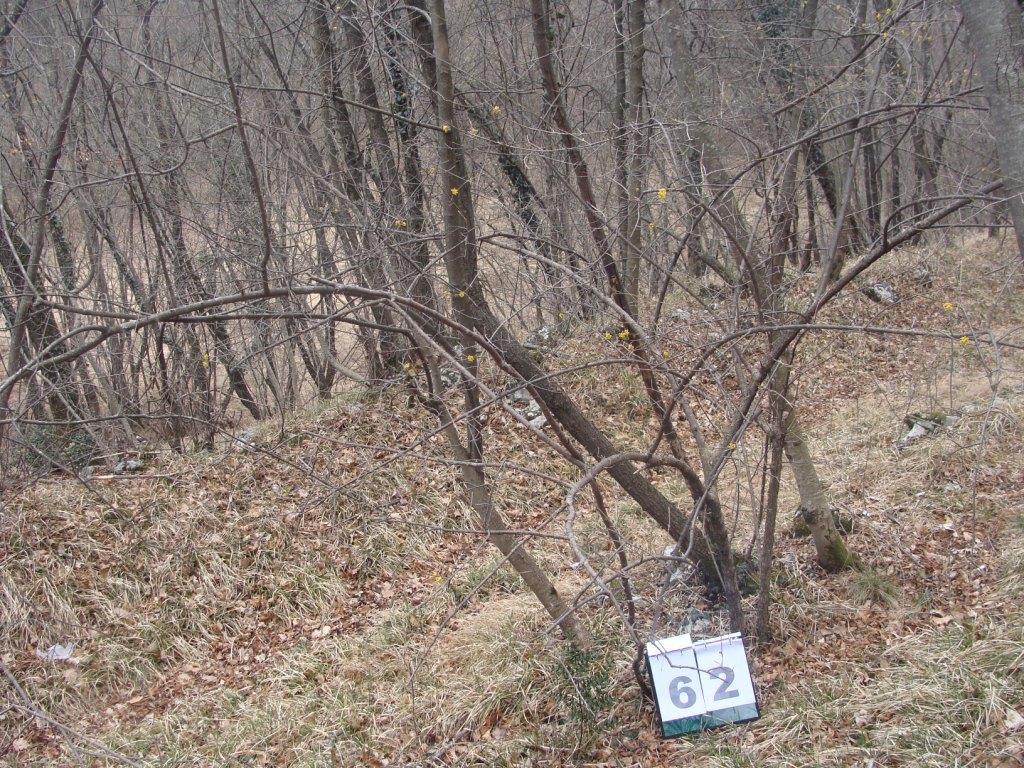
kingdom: Plantae
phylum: Tracheophyta
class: Magnoliopsida
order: Cornales
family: Cornaceae
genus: Cornus
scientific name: Cornus mas
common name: Cornelian-cherry
